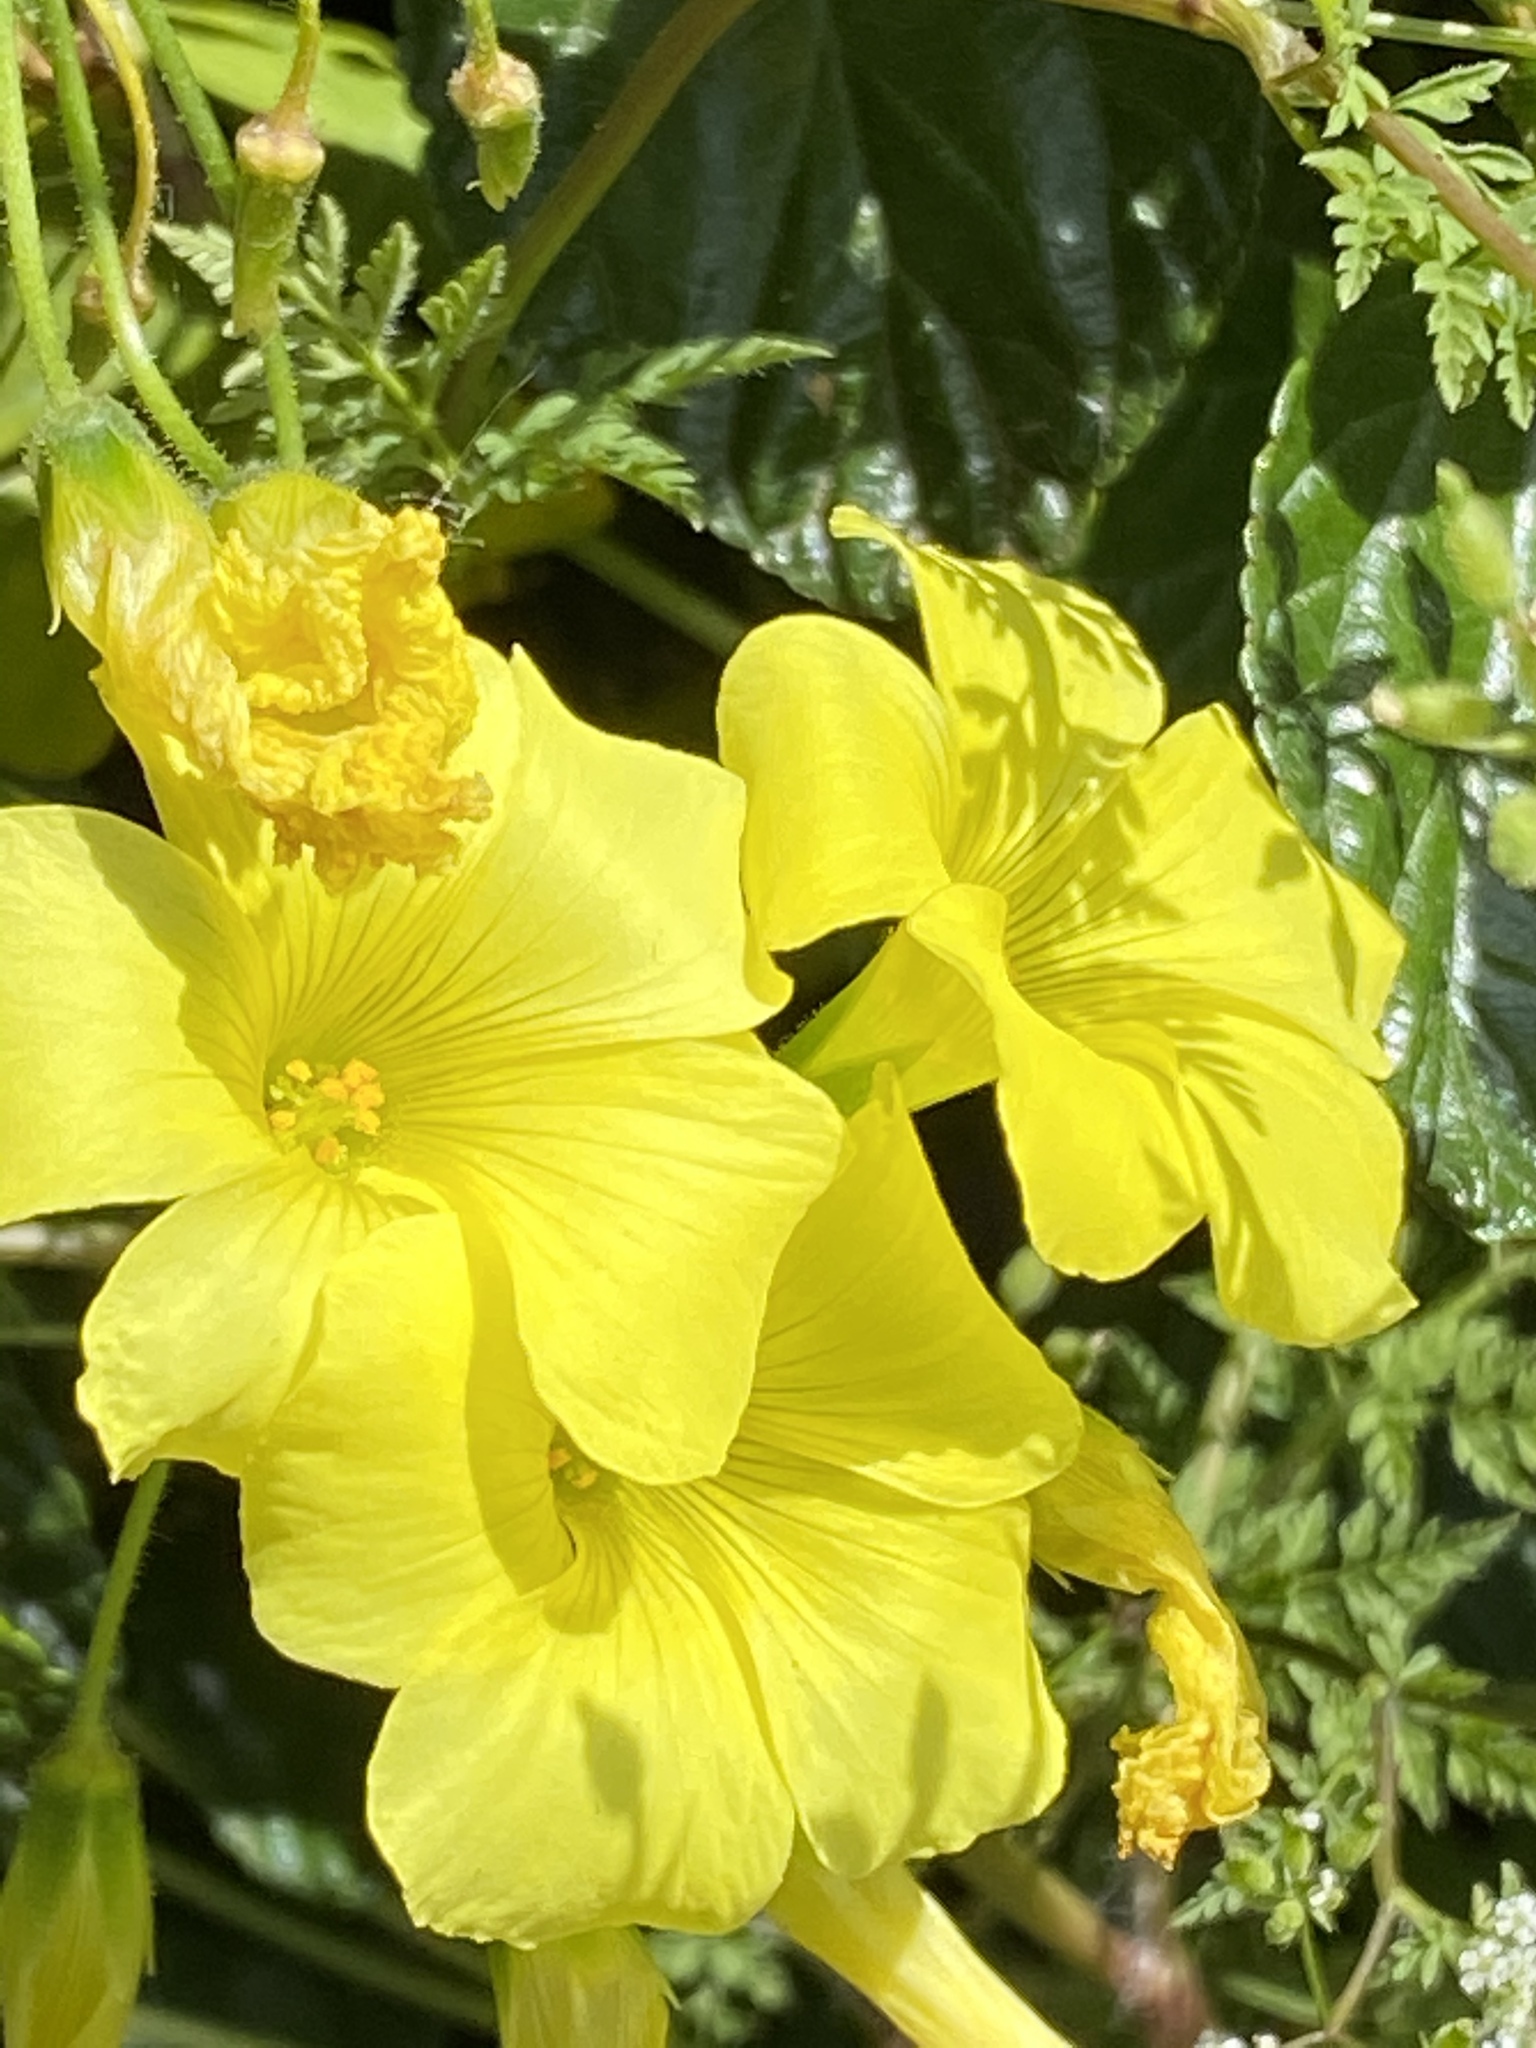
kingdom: Plantae
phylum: Tracheophyta
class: Magnoliopsida
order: Oxalidales
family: Oxalidaceae
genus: Oxalis
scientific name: Oxalis pes-caprae
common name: Bermuda-buttercup
